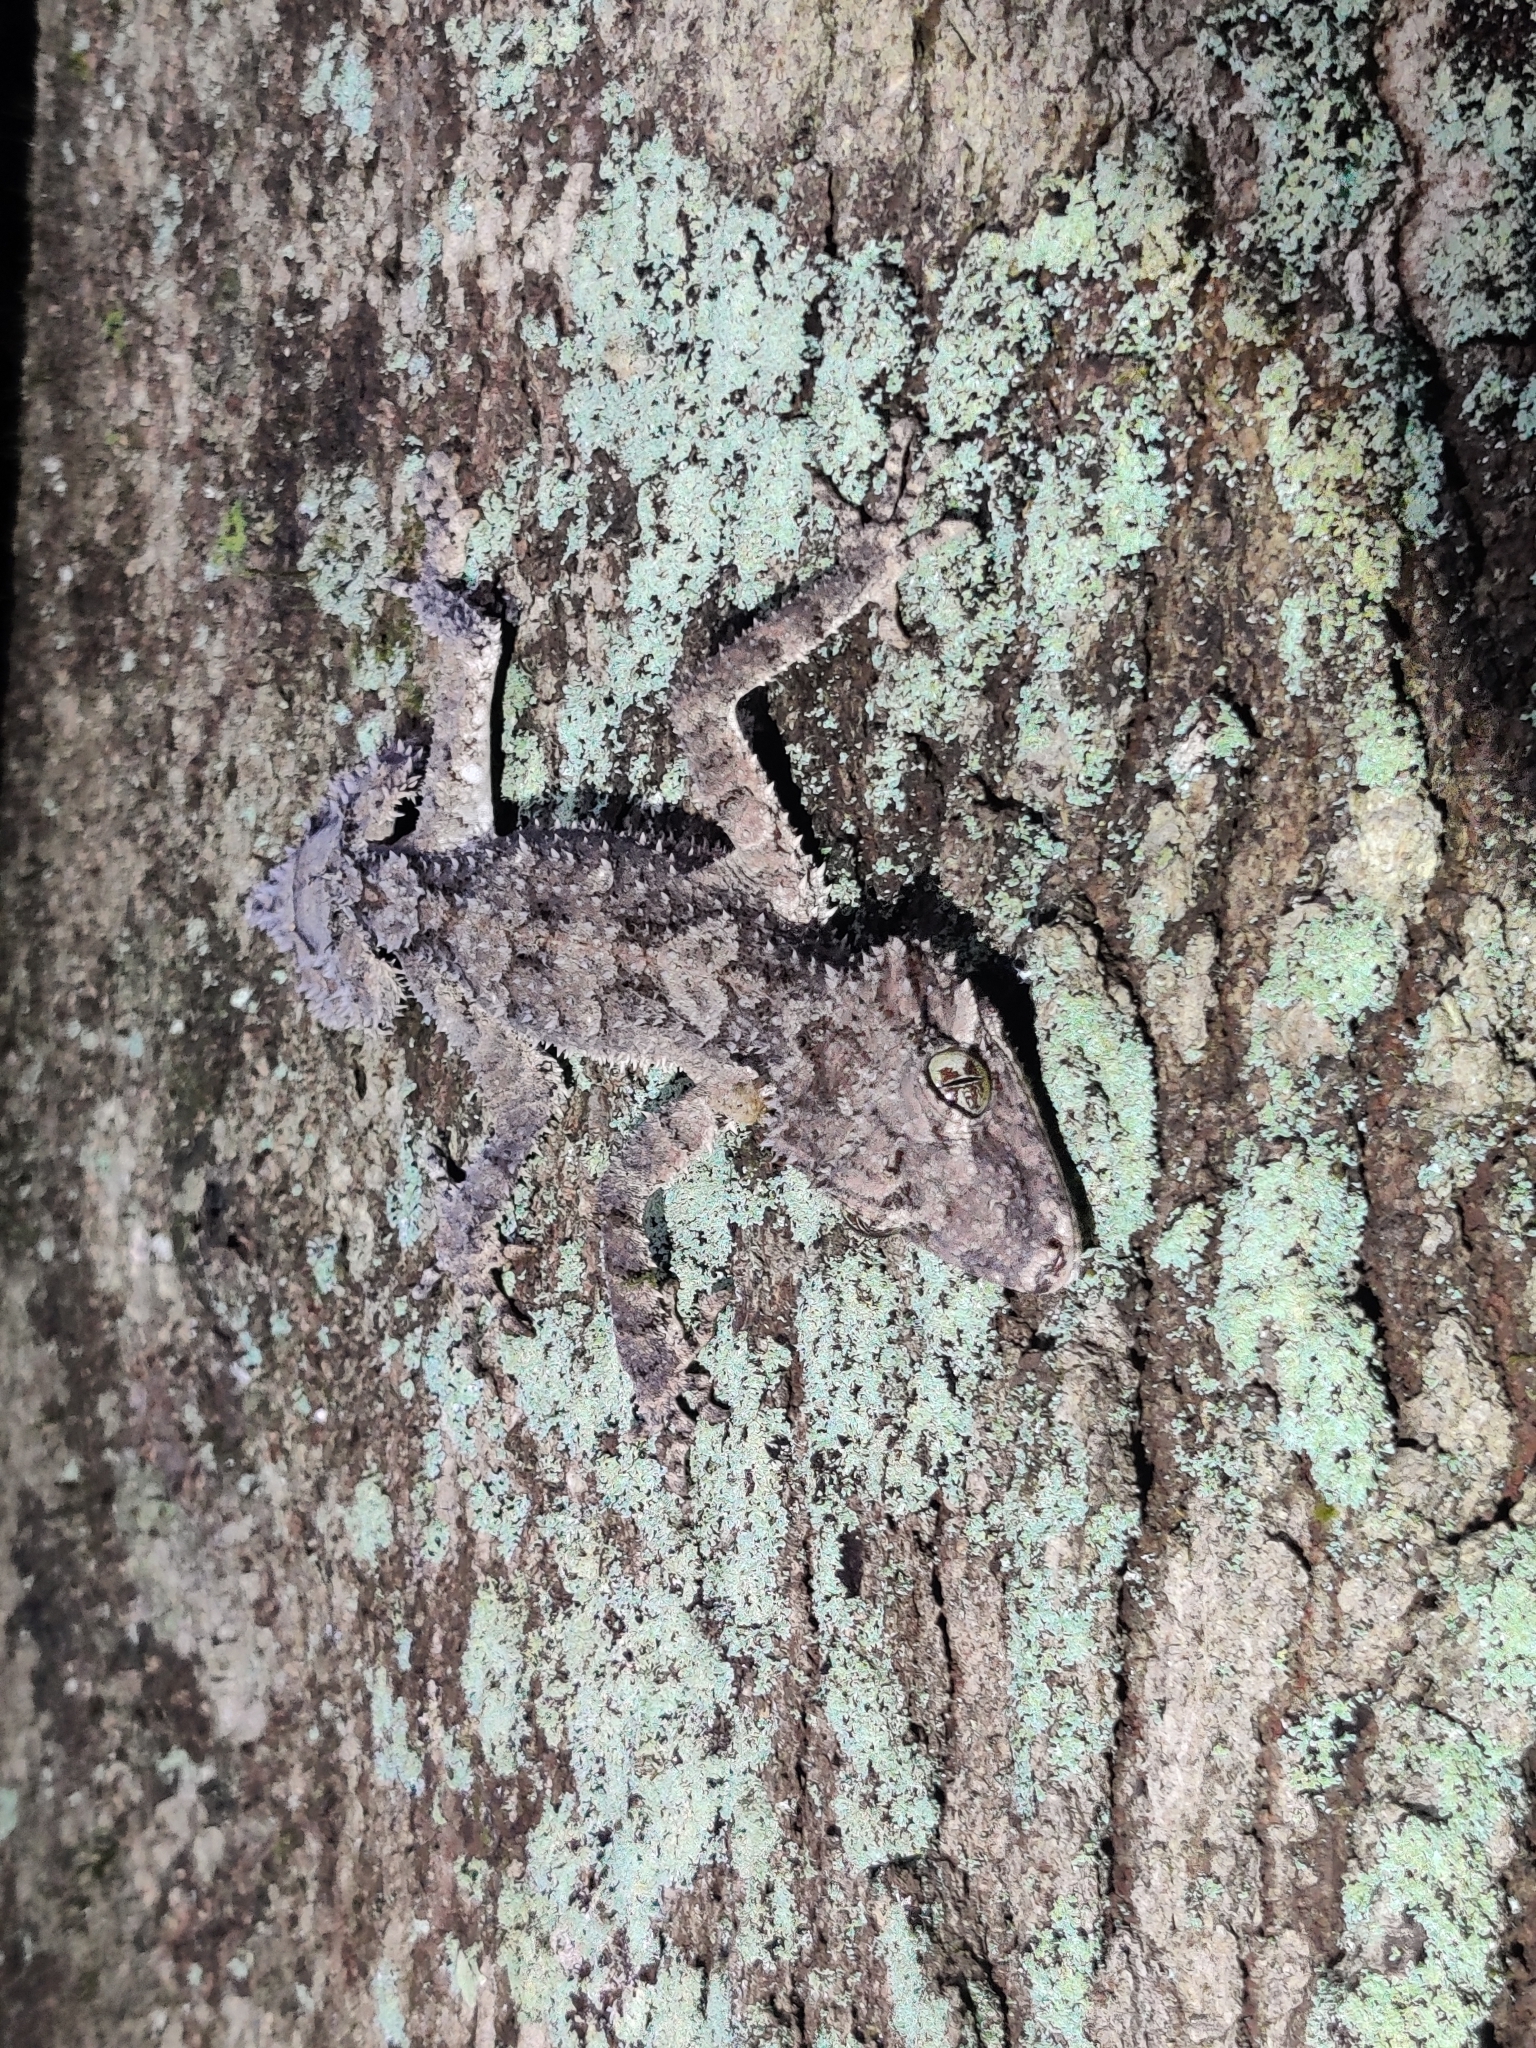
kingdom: Animalia
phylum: Chordata
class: Squamata
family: Carphodactylidae
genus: Saltuarius
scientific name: Saltuarius cornutus
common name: Leaf-tailed gecko
